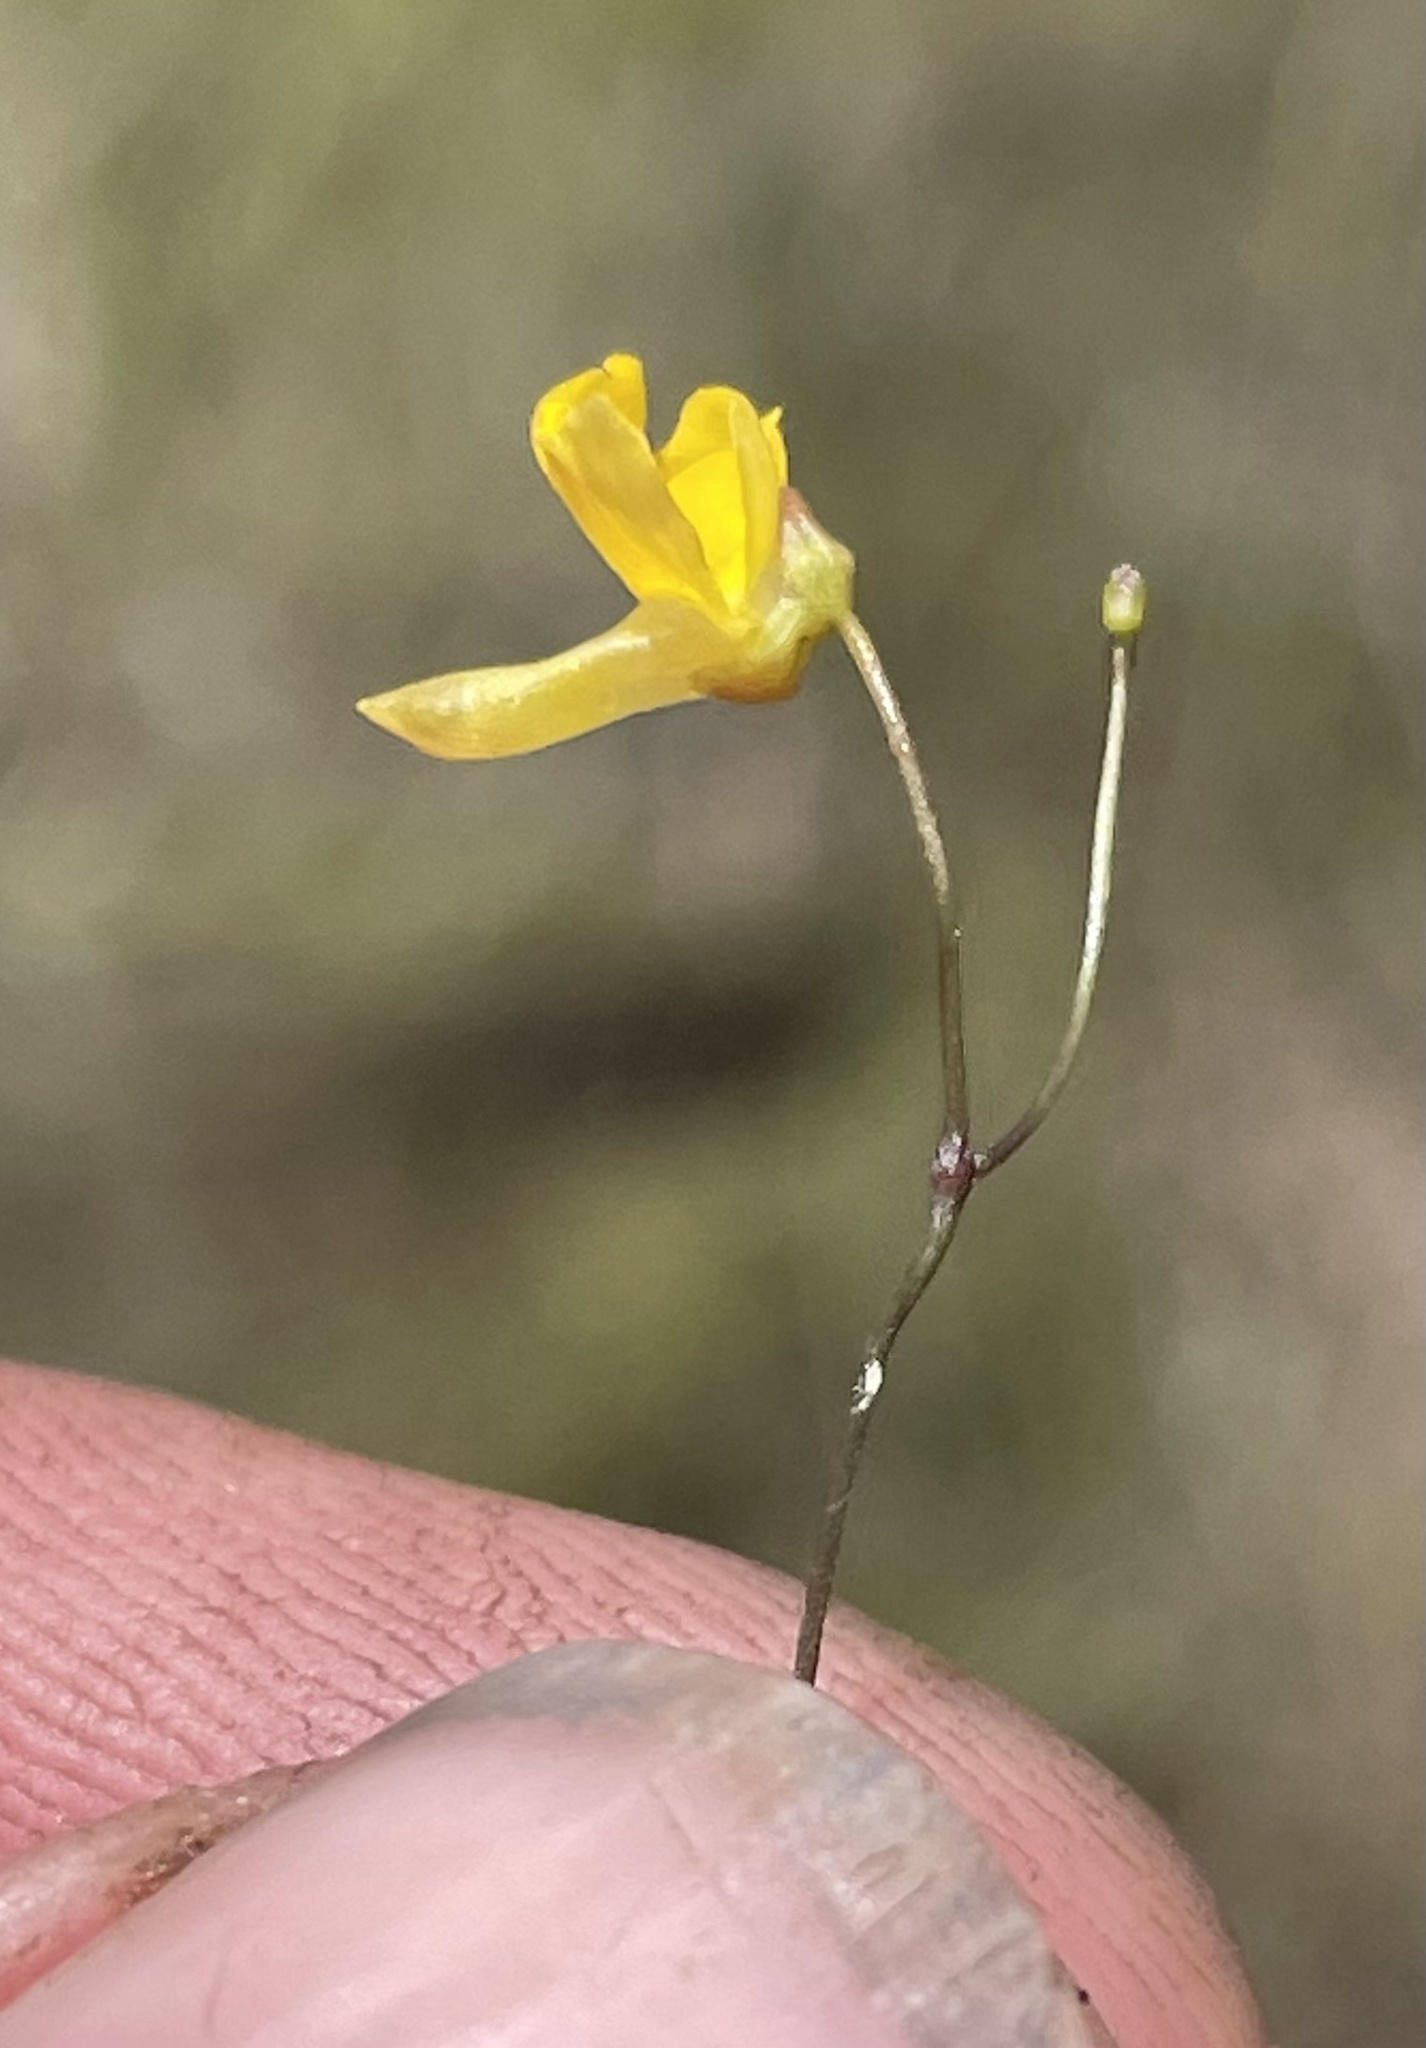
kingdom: Plantae
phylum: Tracheophyta
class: Magnoliopsida
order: Lamiales
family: Lentibulariaceae
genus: Utricularia
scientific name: Utricularia subulata
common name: Tiny bladderwort
